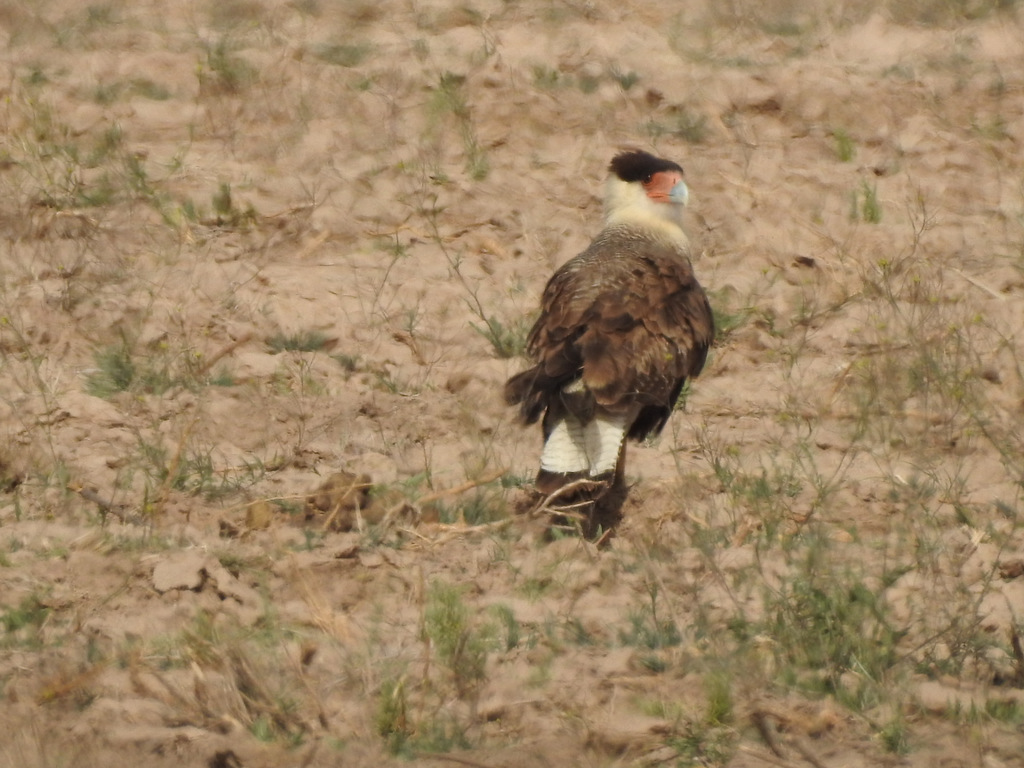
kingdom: Animalia
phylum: Chordata
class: Aves
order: Falconiformes
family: Falconidae
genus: Caracara
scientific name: Caracara plancus
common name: Southern caracara
